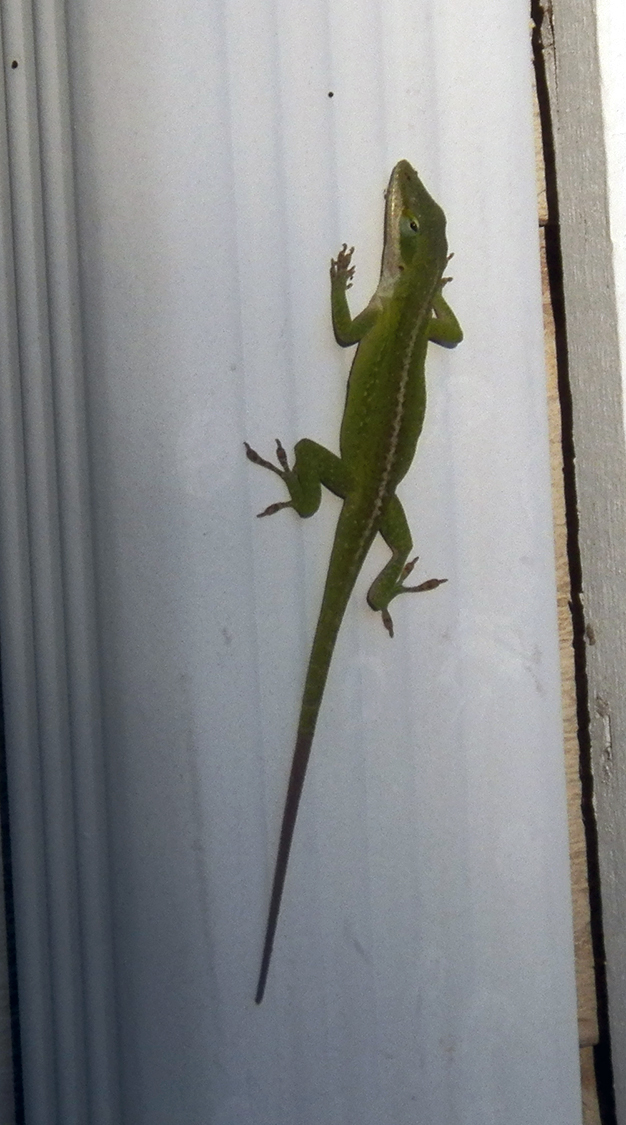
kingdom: Animalia
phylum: Chordata
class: Squamata
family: Dactyloidae
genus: Anolis
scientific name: Anolis carolinensis
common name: Green anole
